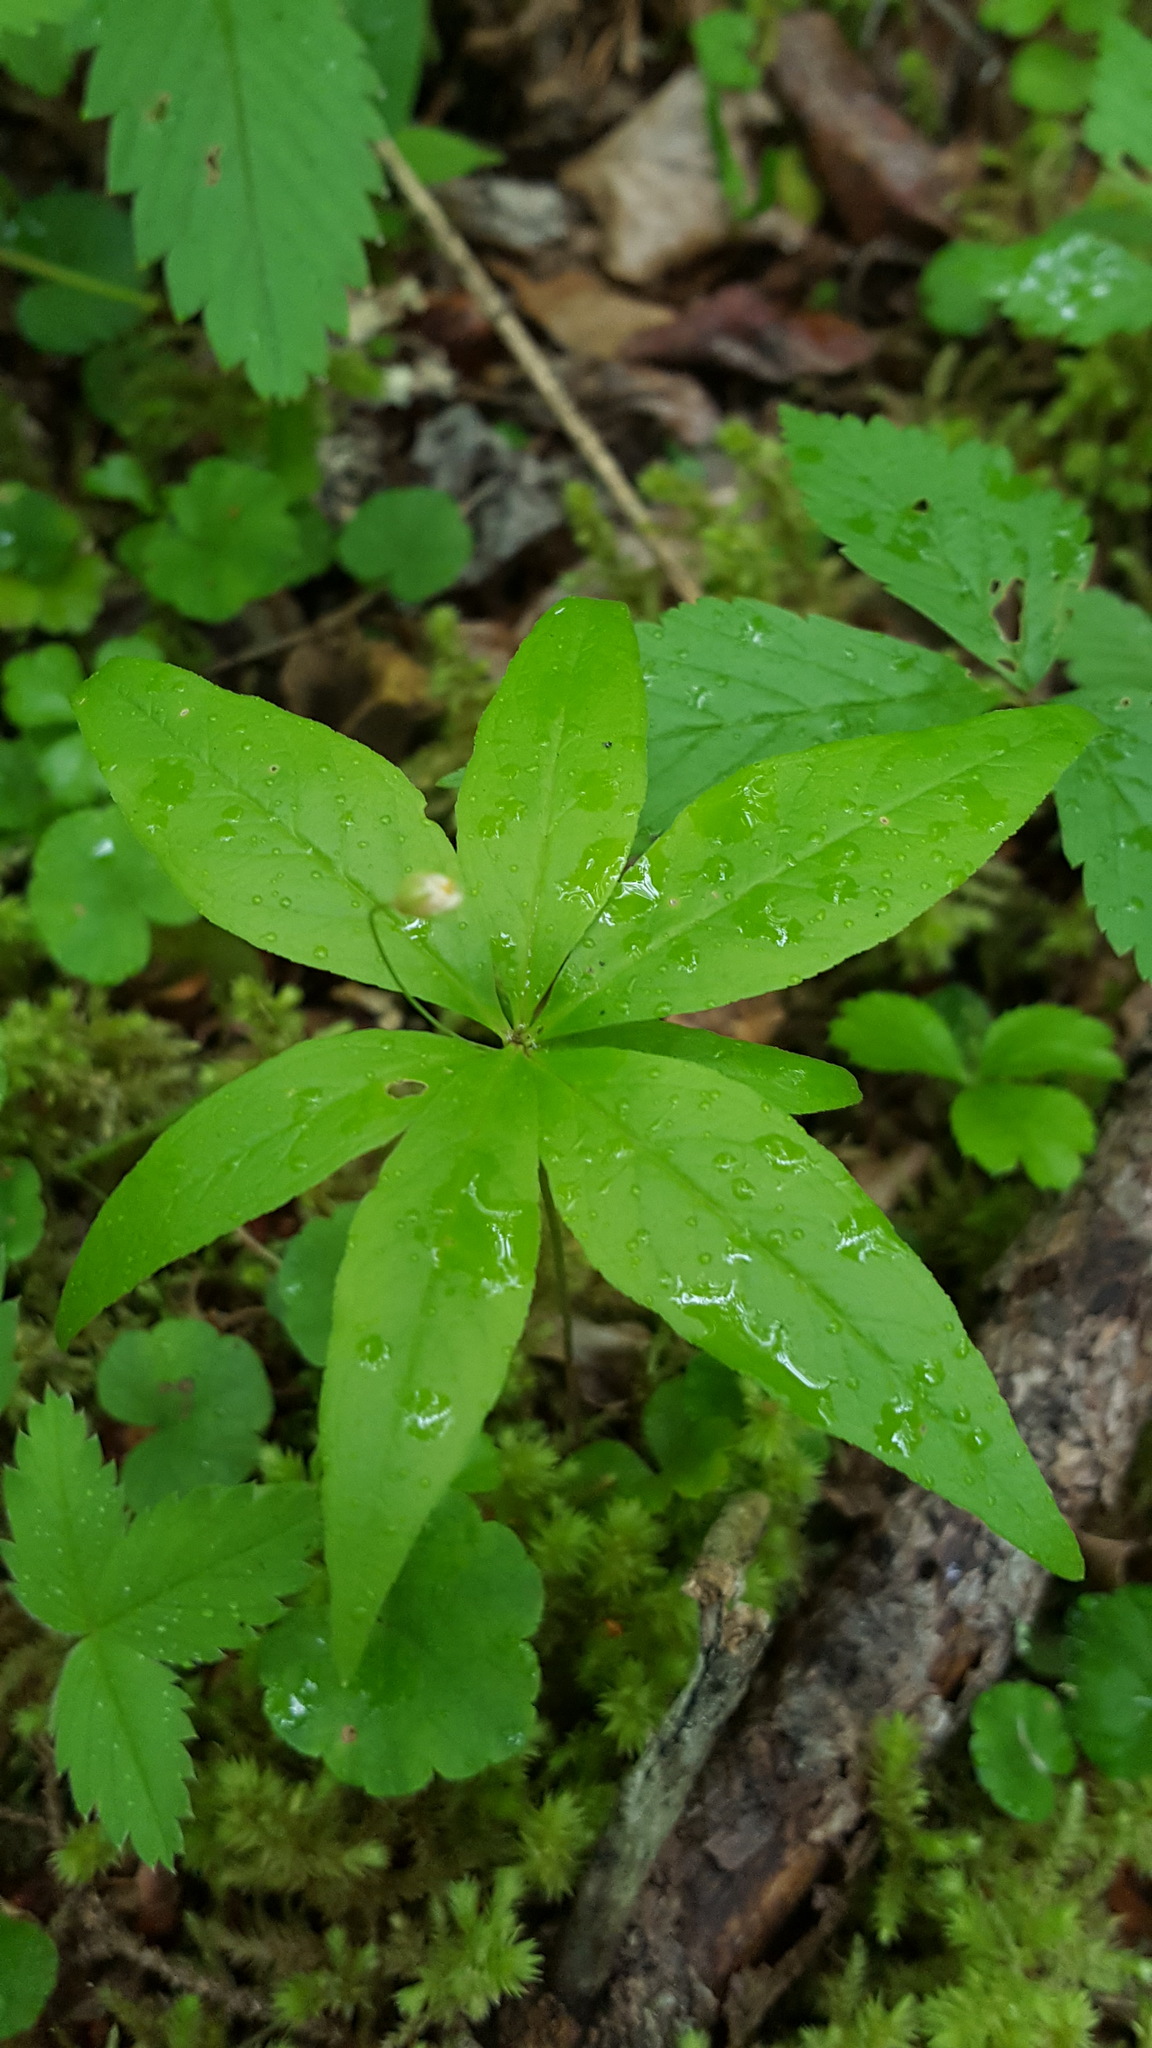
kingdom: Plantae
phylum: Tracheophyta
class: Magnoliopsida
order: Ericales
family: Primulaceae
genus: Lysimachia
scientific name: Lysimachia borealis
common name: American starflower
